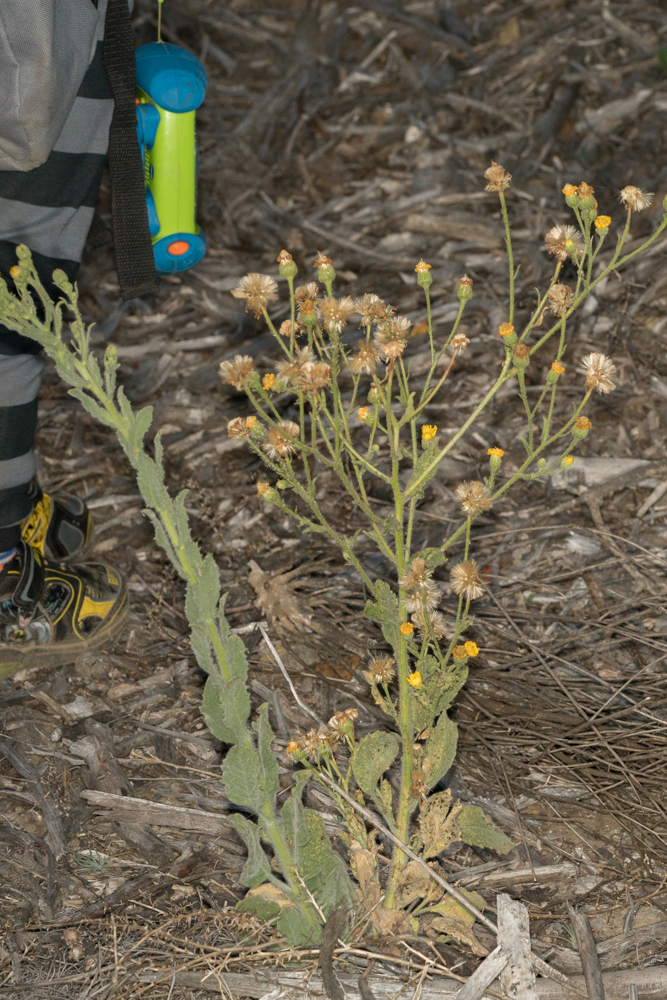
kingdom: Plantae
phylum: Tracheophyta
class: Magnoliopsida
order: Asterales
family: Asteraceae
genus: Heterotheca
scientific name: Heterotheca grandiflora
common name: Telegraphweed
